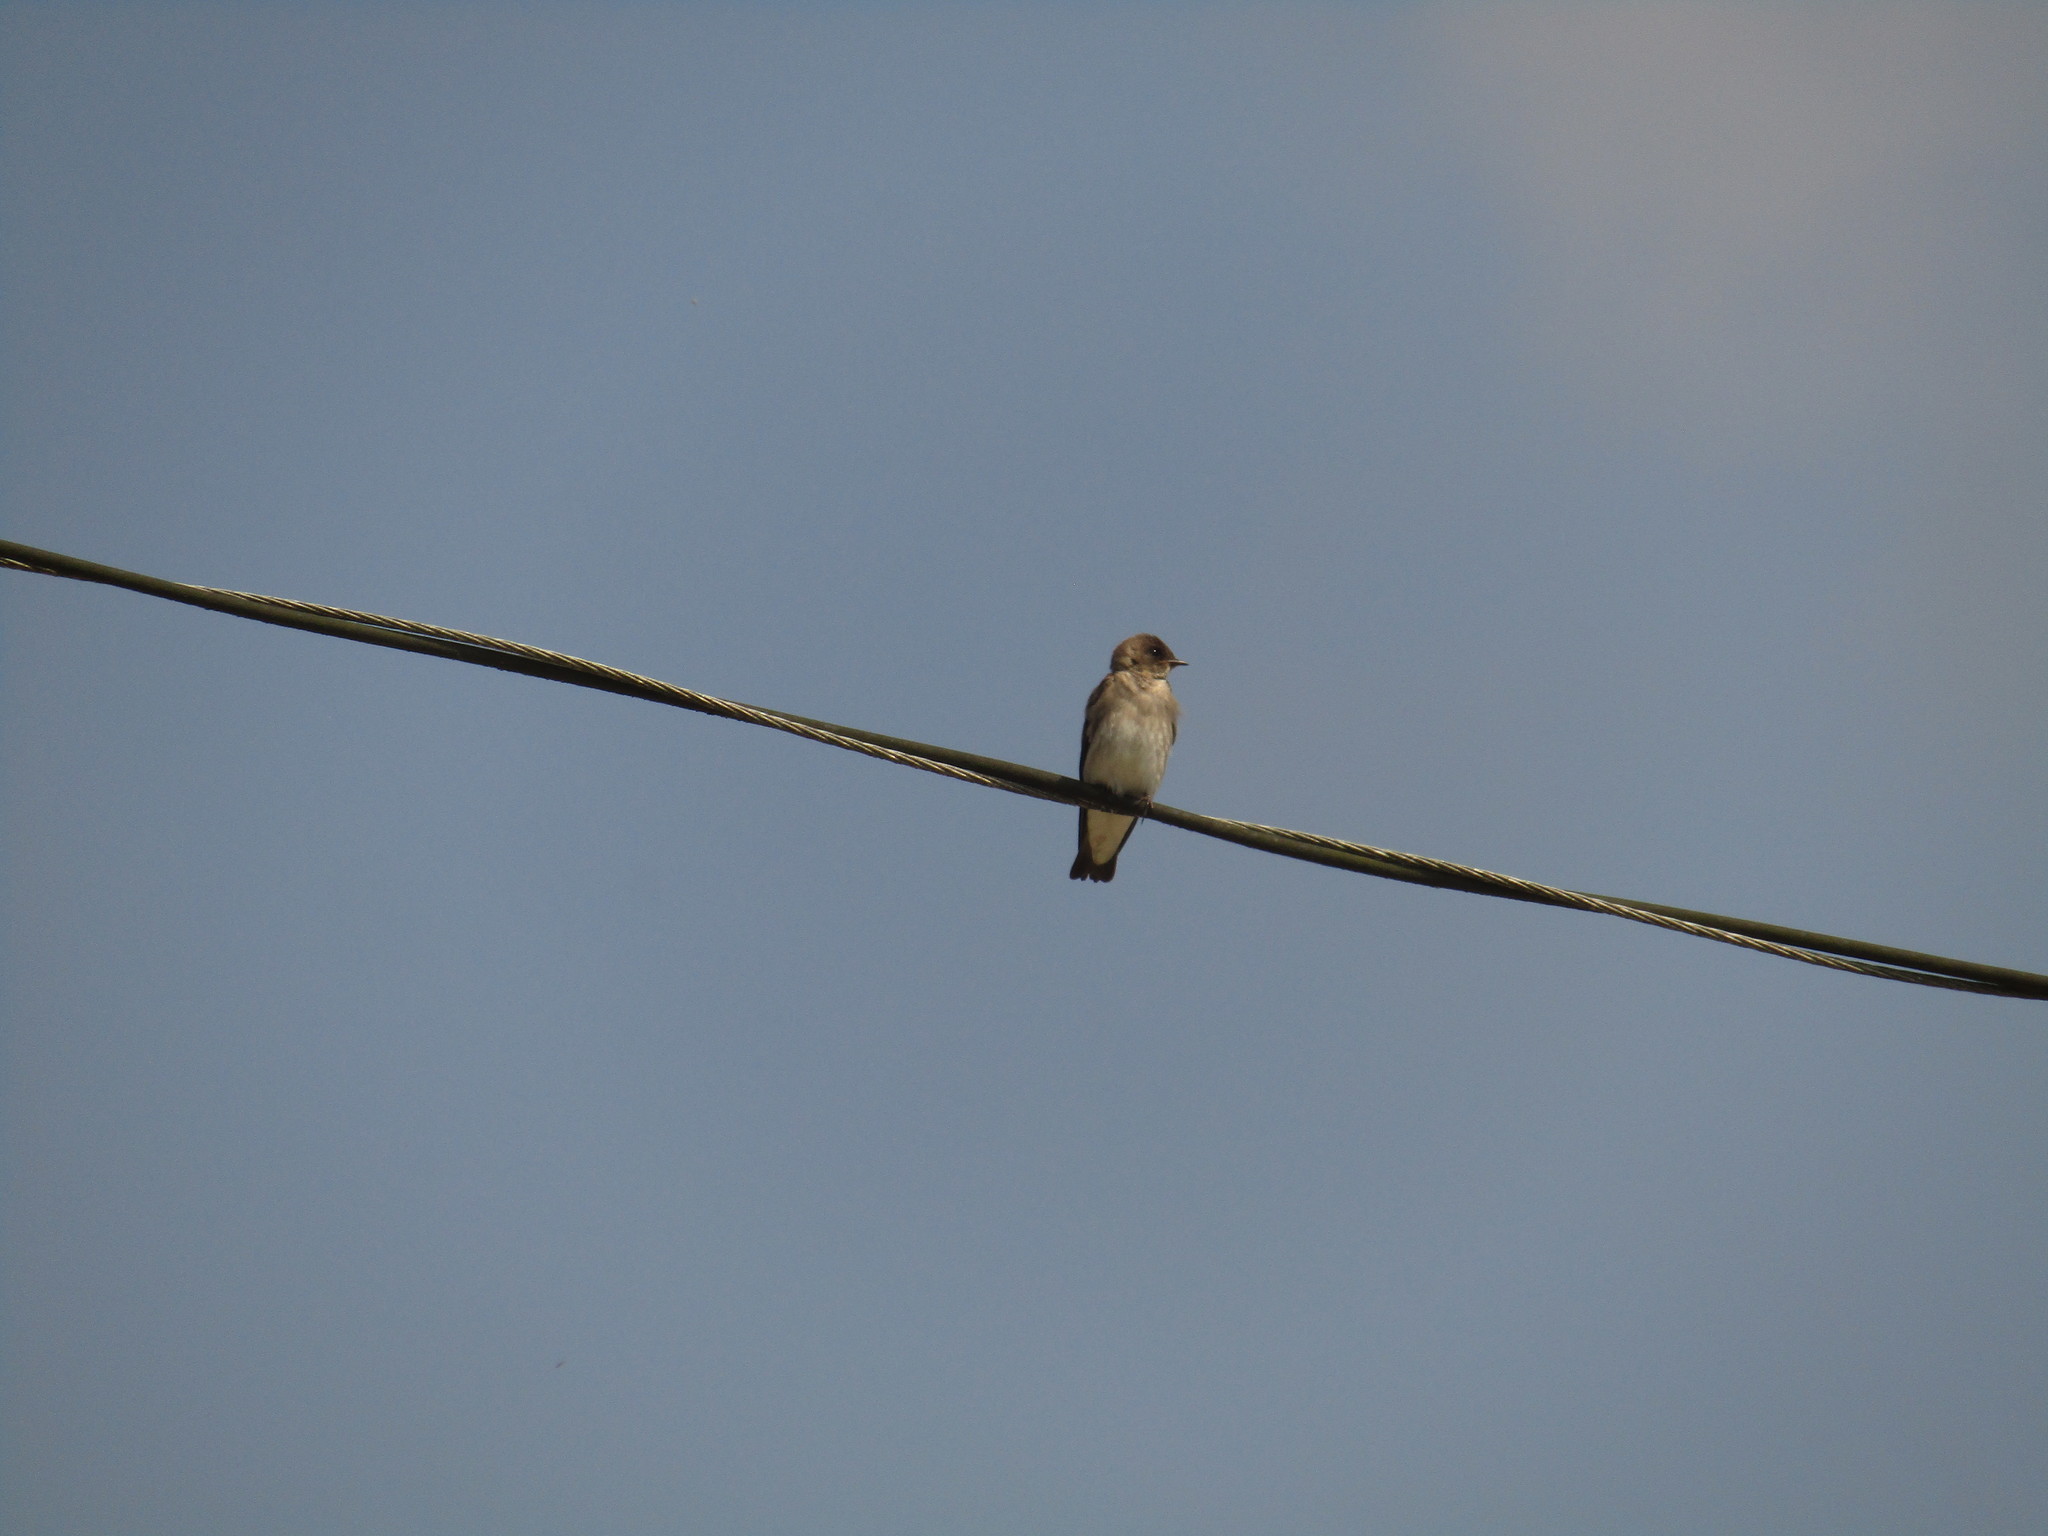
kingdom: Animalia
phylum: Chordata
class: Aves
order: Passeriformes
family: Hirundinidae
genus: Stelgidopteryx
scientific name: Stelgidopteryx serripennis
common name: Northern rough-winged swallow
